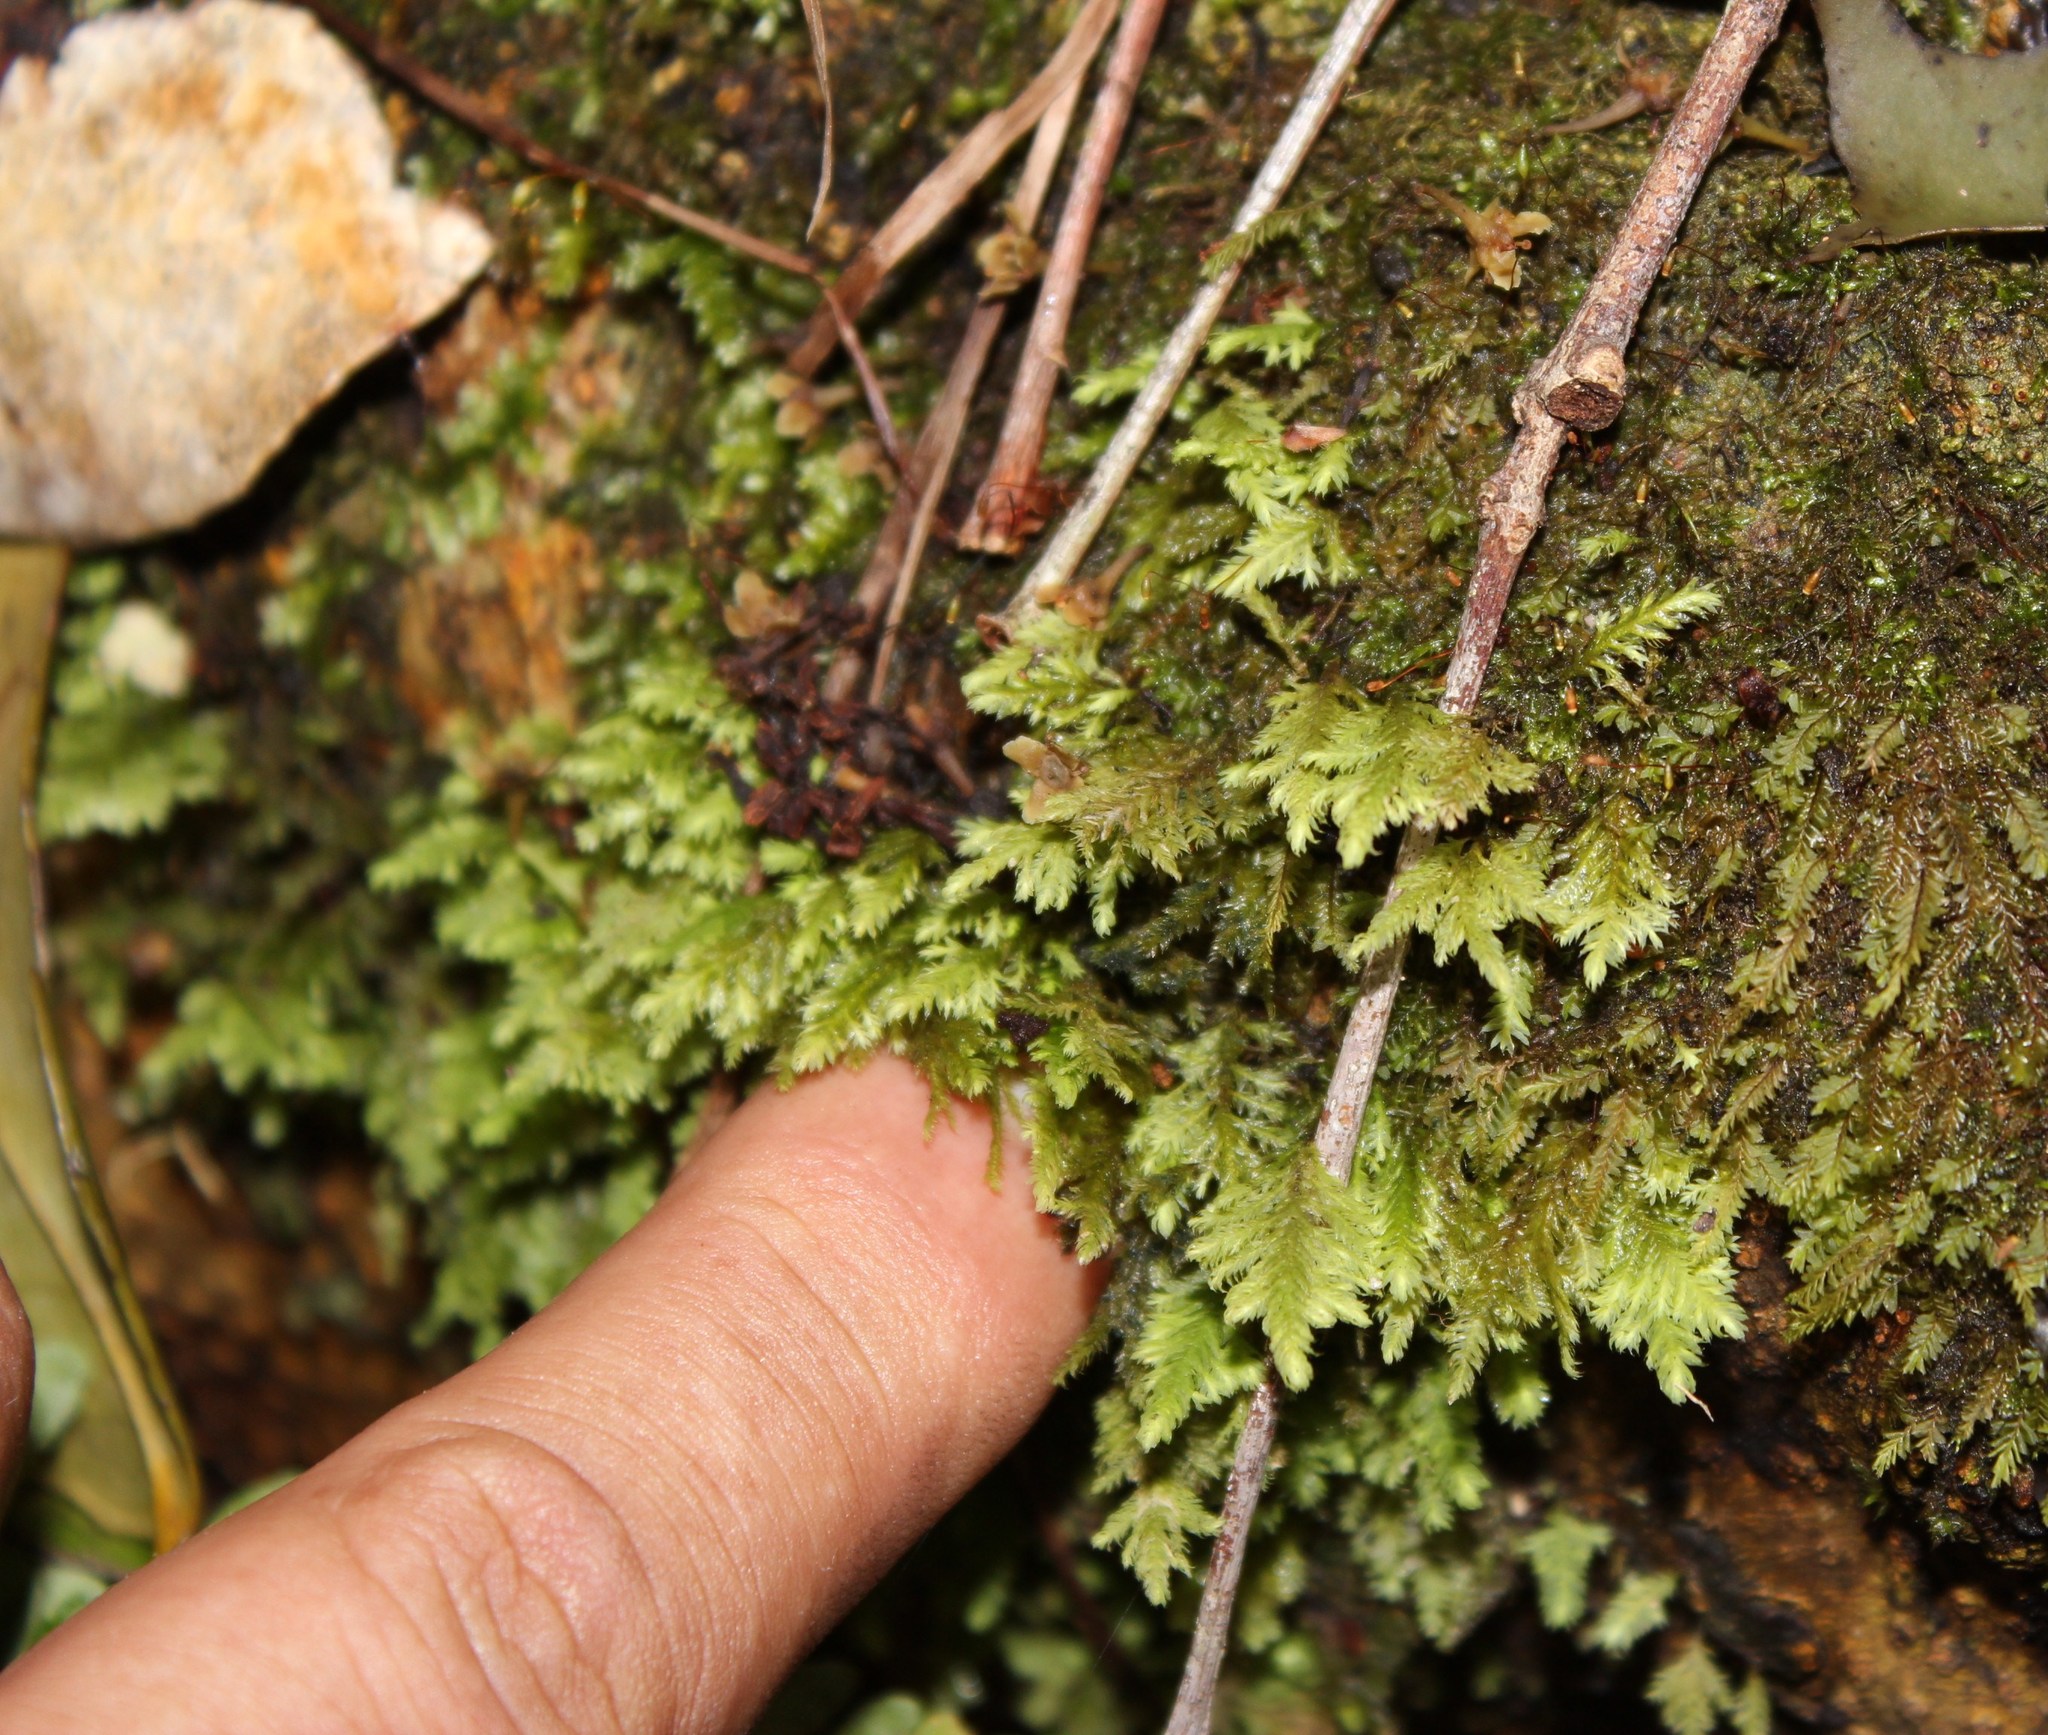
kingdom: Plantae
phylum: Bryophyta
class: Bryopsida
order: Hypopterygiales
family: Hypopterygiaceae
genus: Lopidium
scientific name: Lopidium struthiopteris
